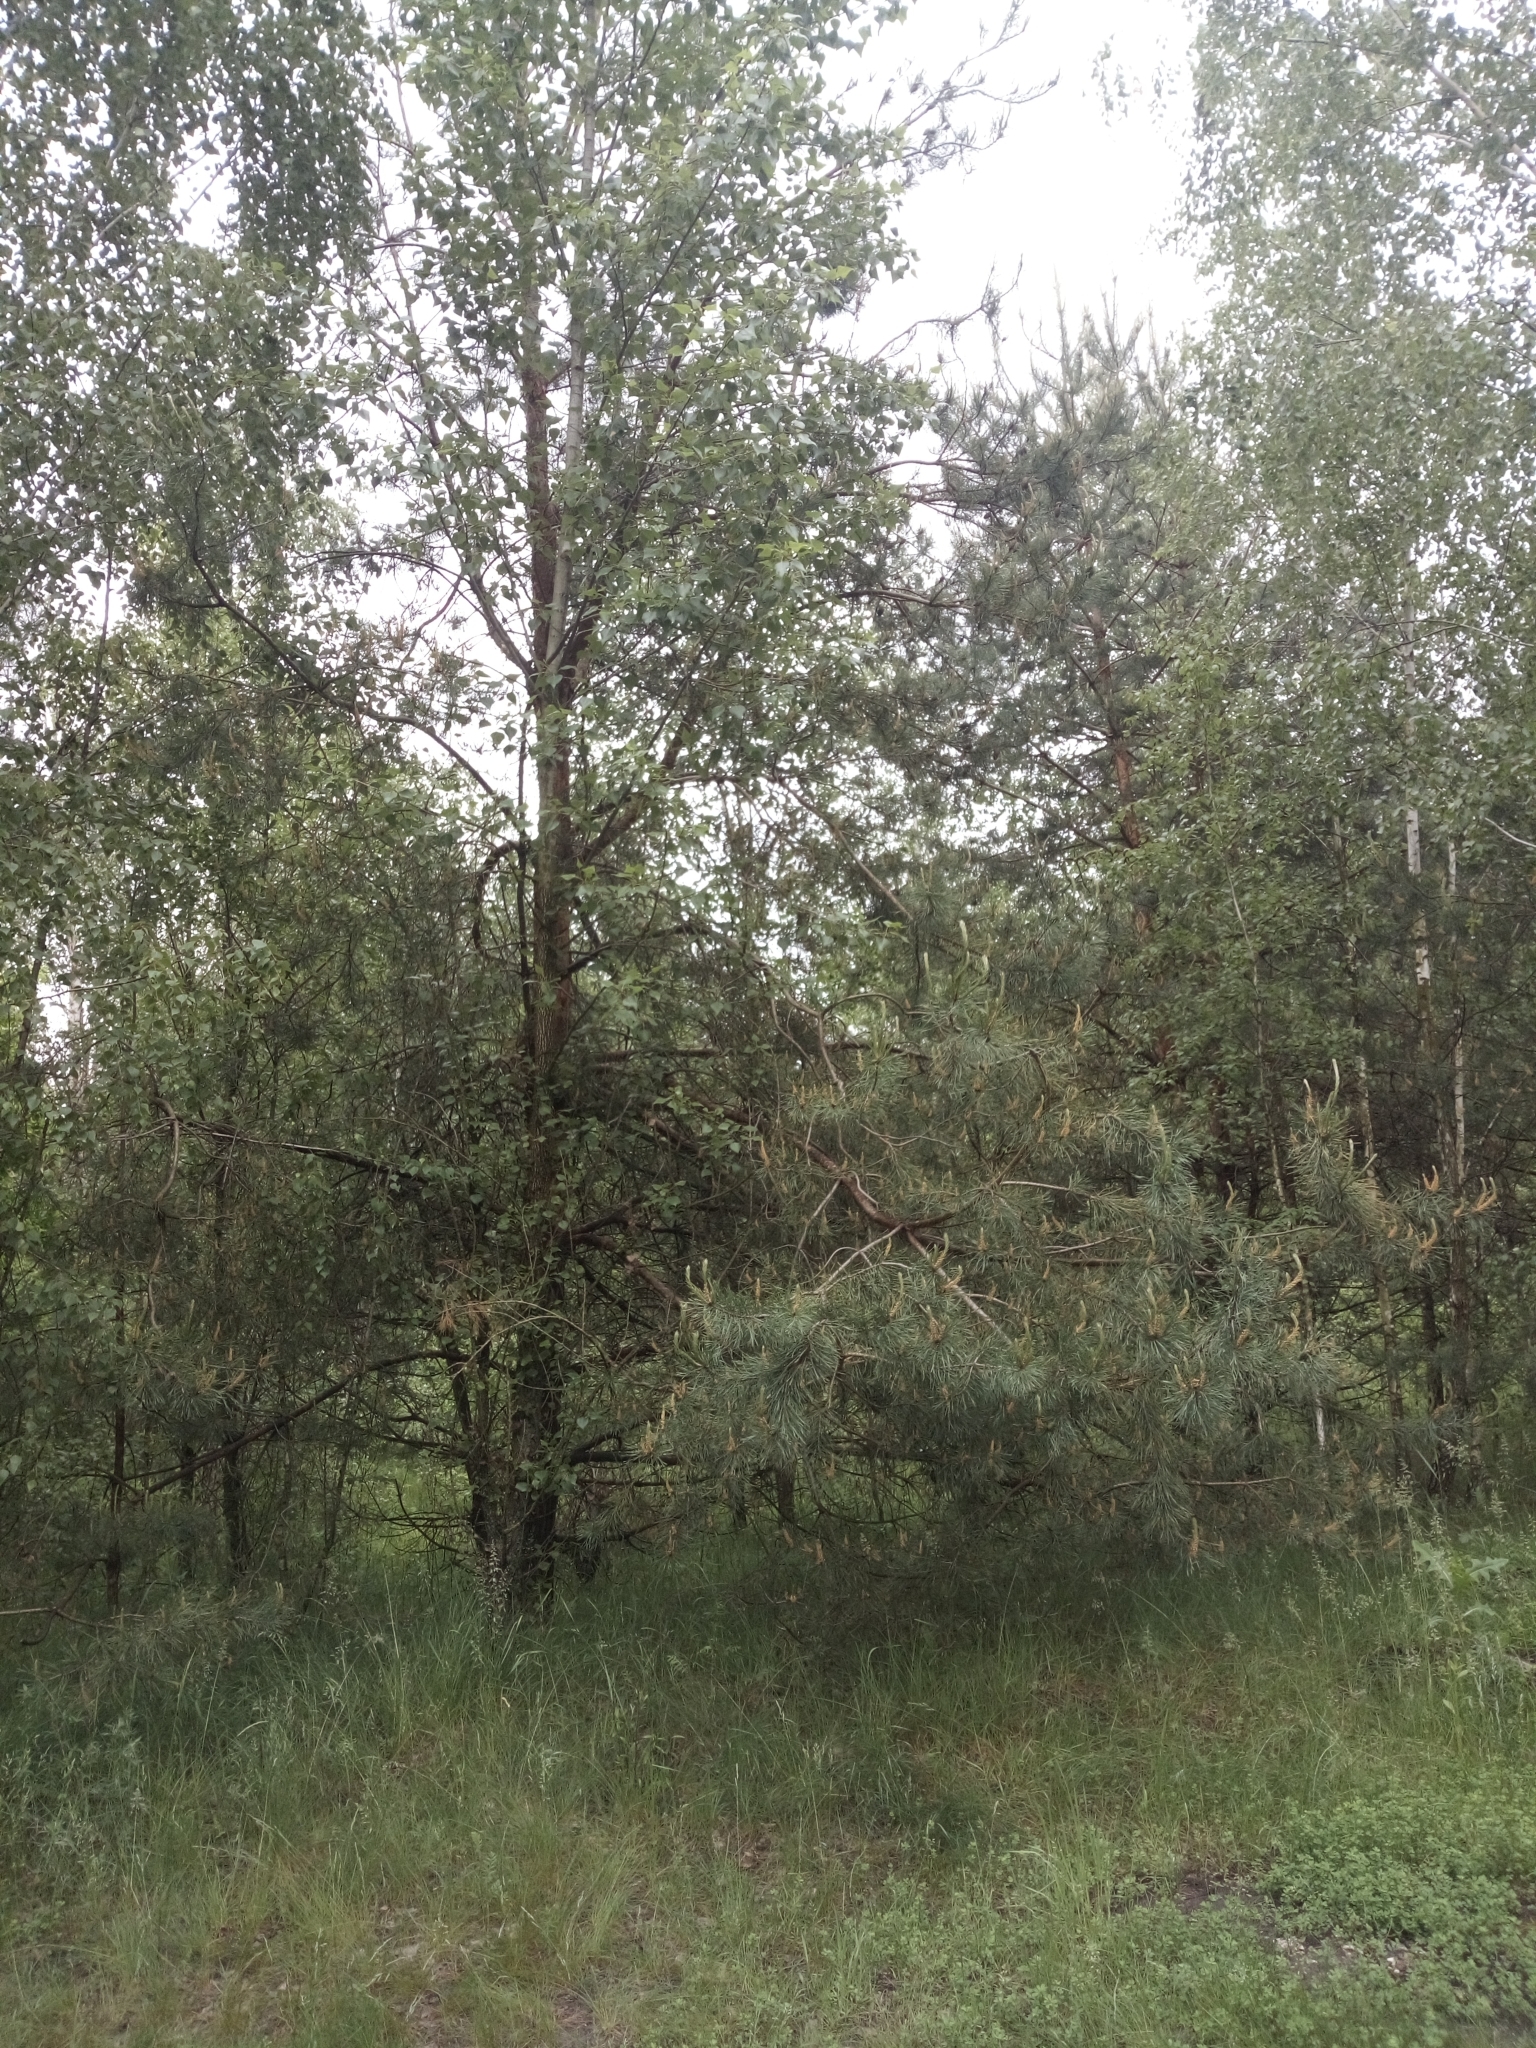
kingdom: Plantae
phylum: Tracheophyta
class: Pinopsida
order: Pinales
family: Pinaceae
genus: Pinus
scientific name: Pinus sylvestris
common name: Scots pine
